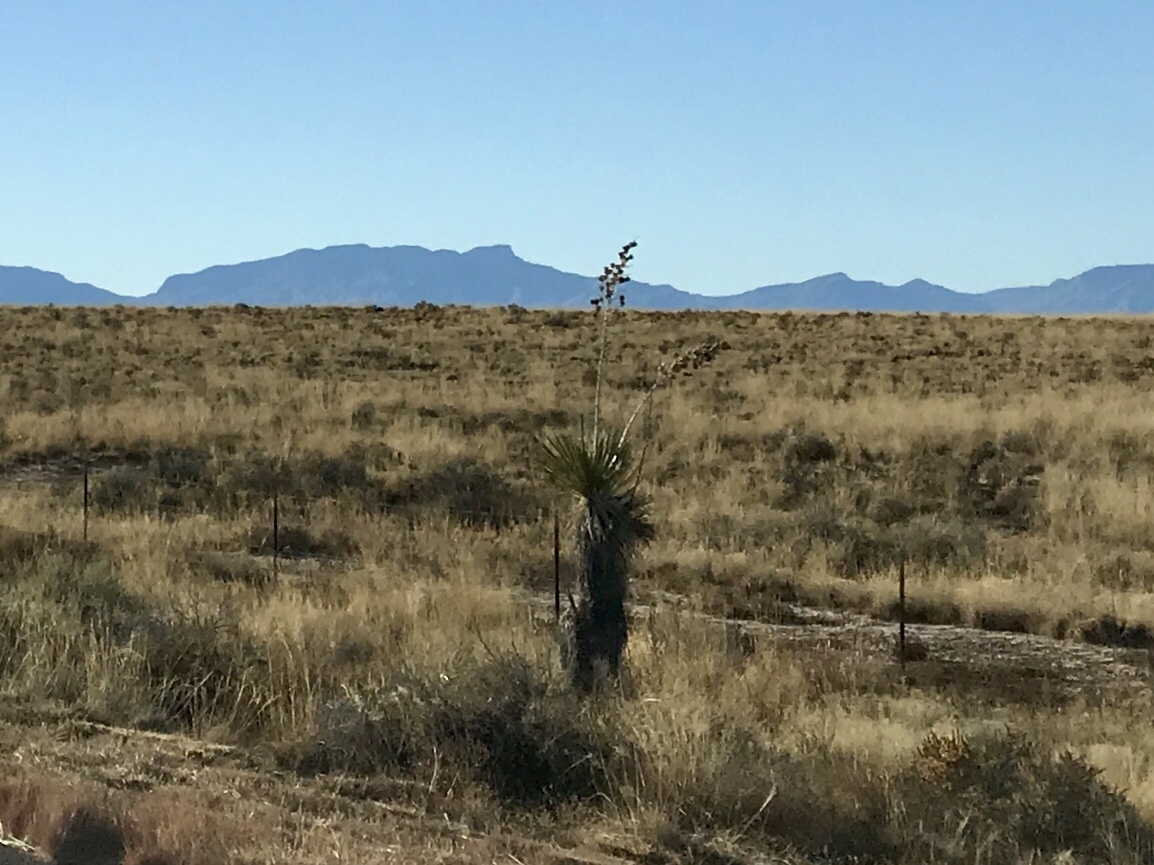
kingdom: Plantae
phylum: Tracheophyta
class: Liliopsida
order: Asparagales
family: Asparagaceae
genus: Yucca
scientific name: Yucca elata
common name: Palmella
